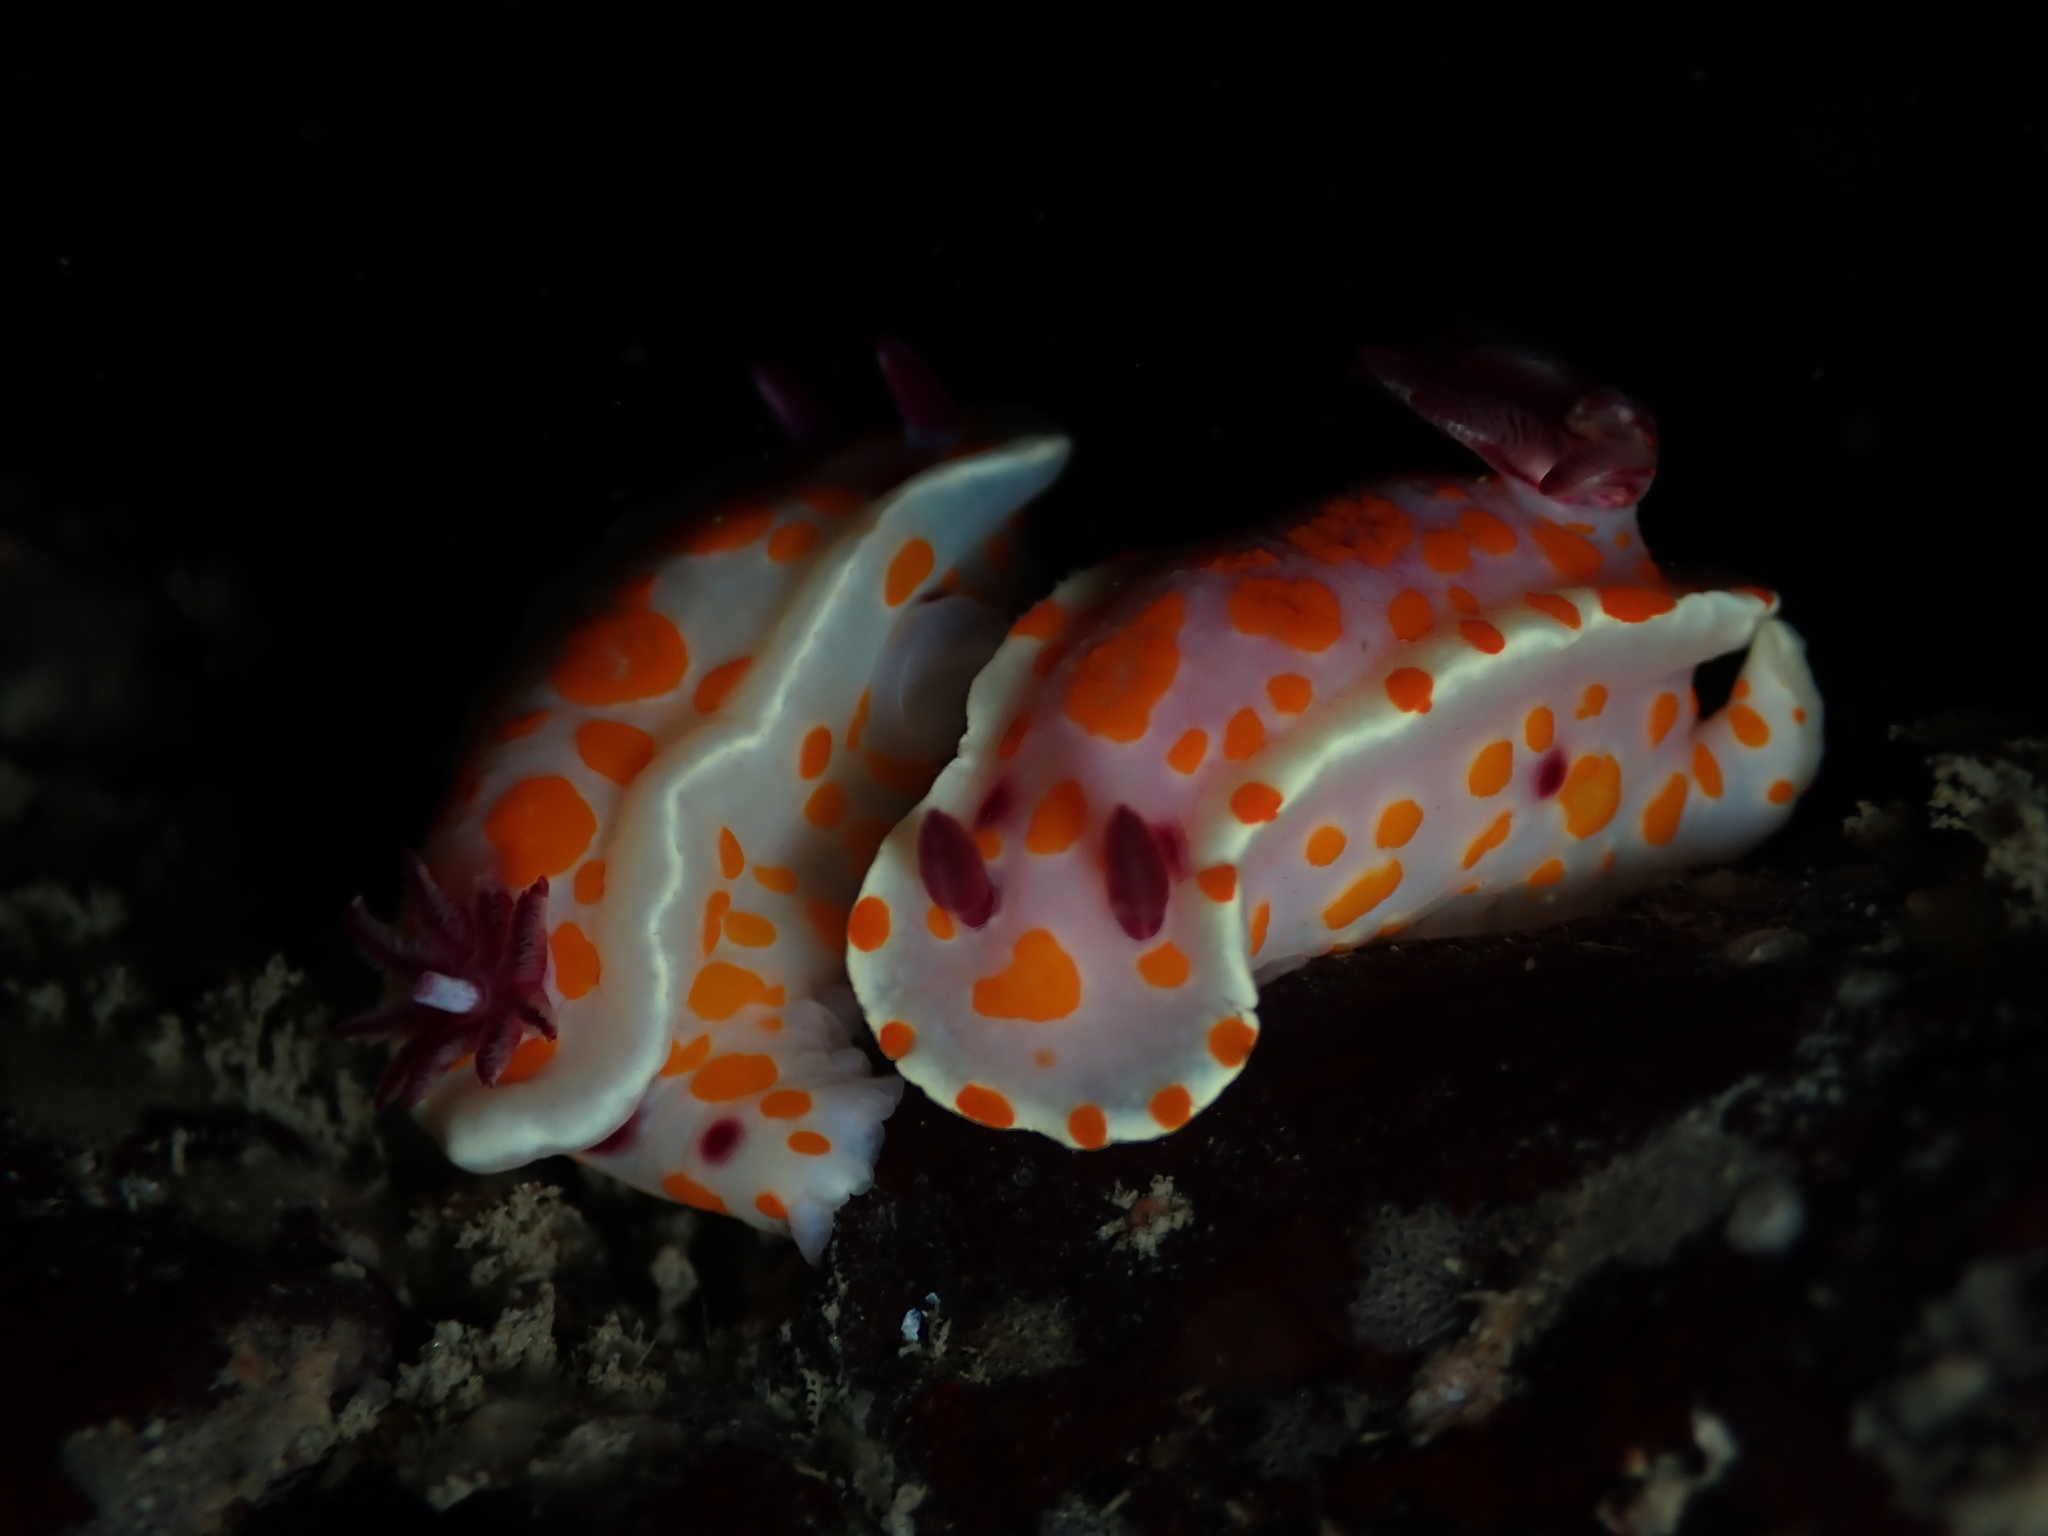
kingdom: Animalia
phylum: Mollusca
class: Gastropoda
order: Nudibranchia
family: Chromodorididae
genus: Ceratosoma
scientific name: Ceratosoma amoenum
